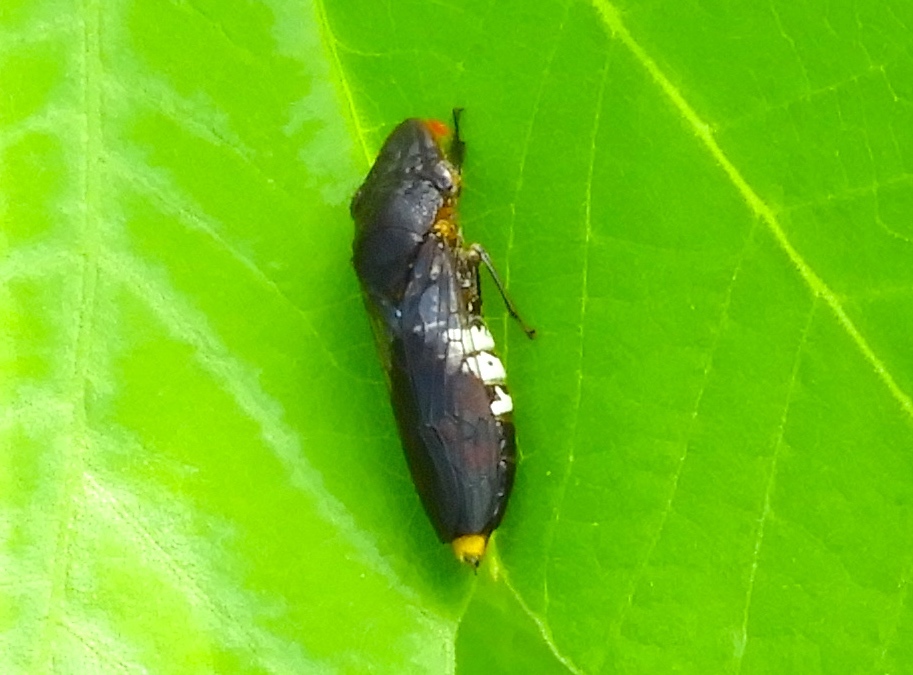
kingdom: Animalia
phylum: Arthropoda
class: Insecta
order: Hemiptera
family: Cicadellidae
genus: Homalodisca
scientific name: Homalodisca ichthyocephala
